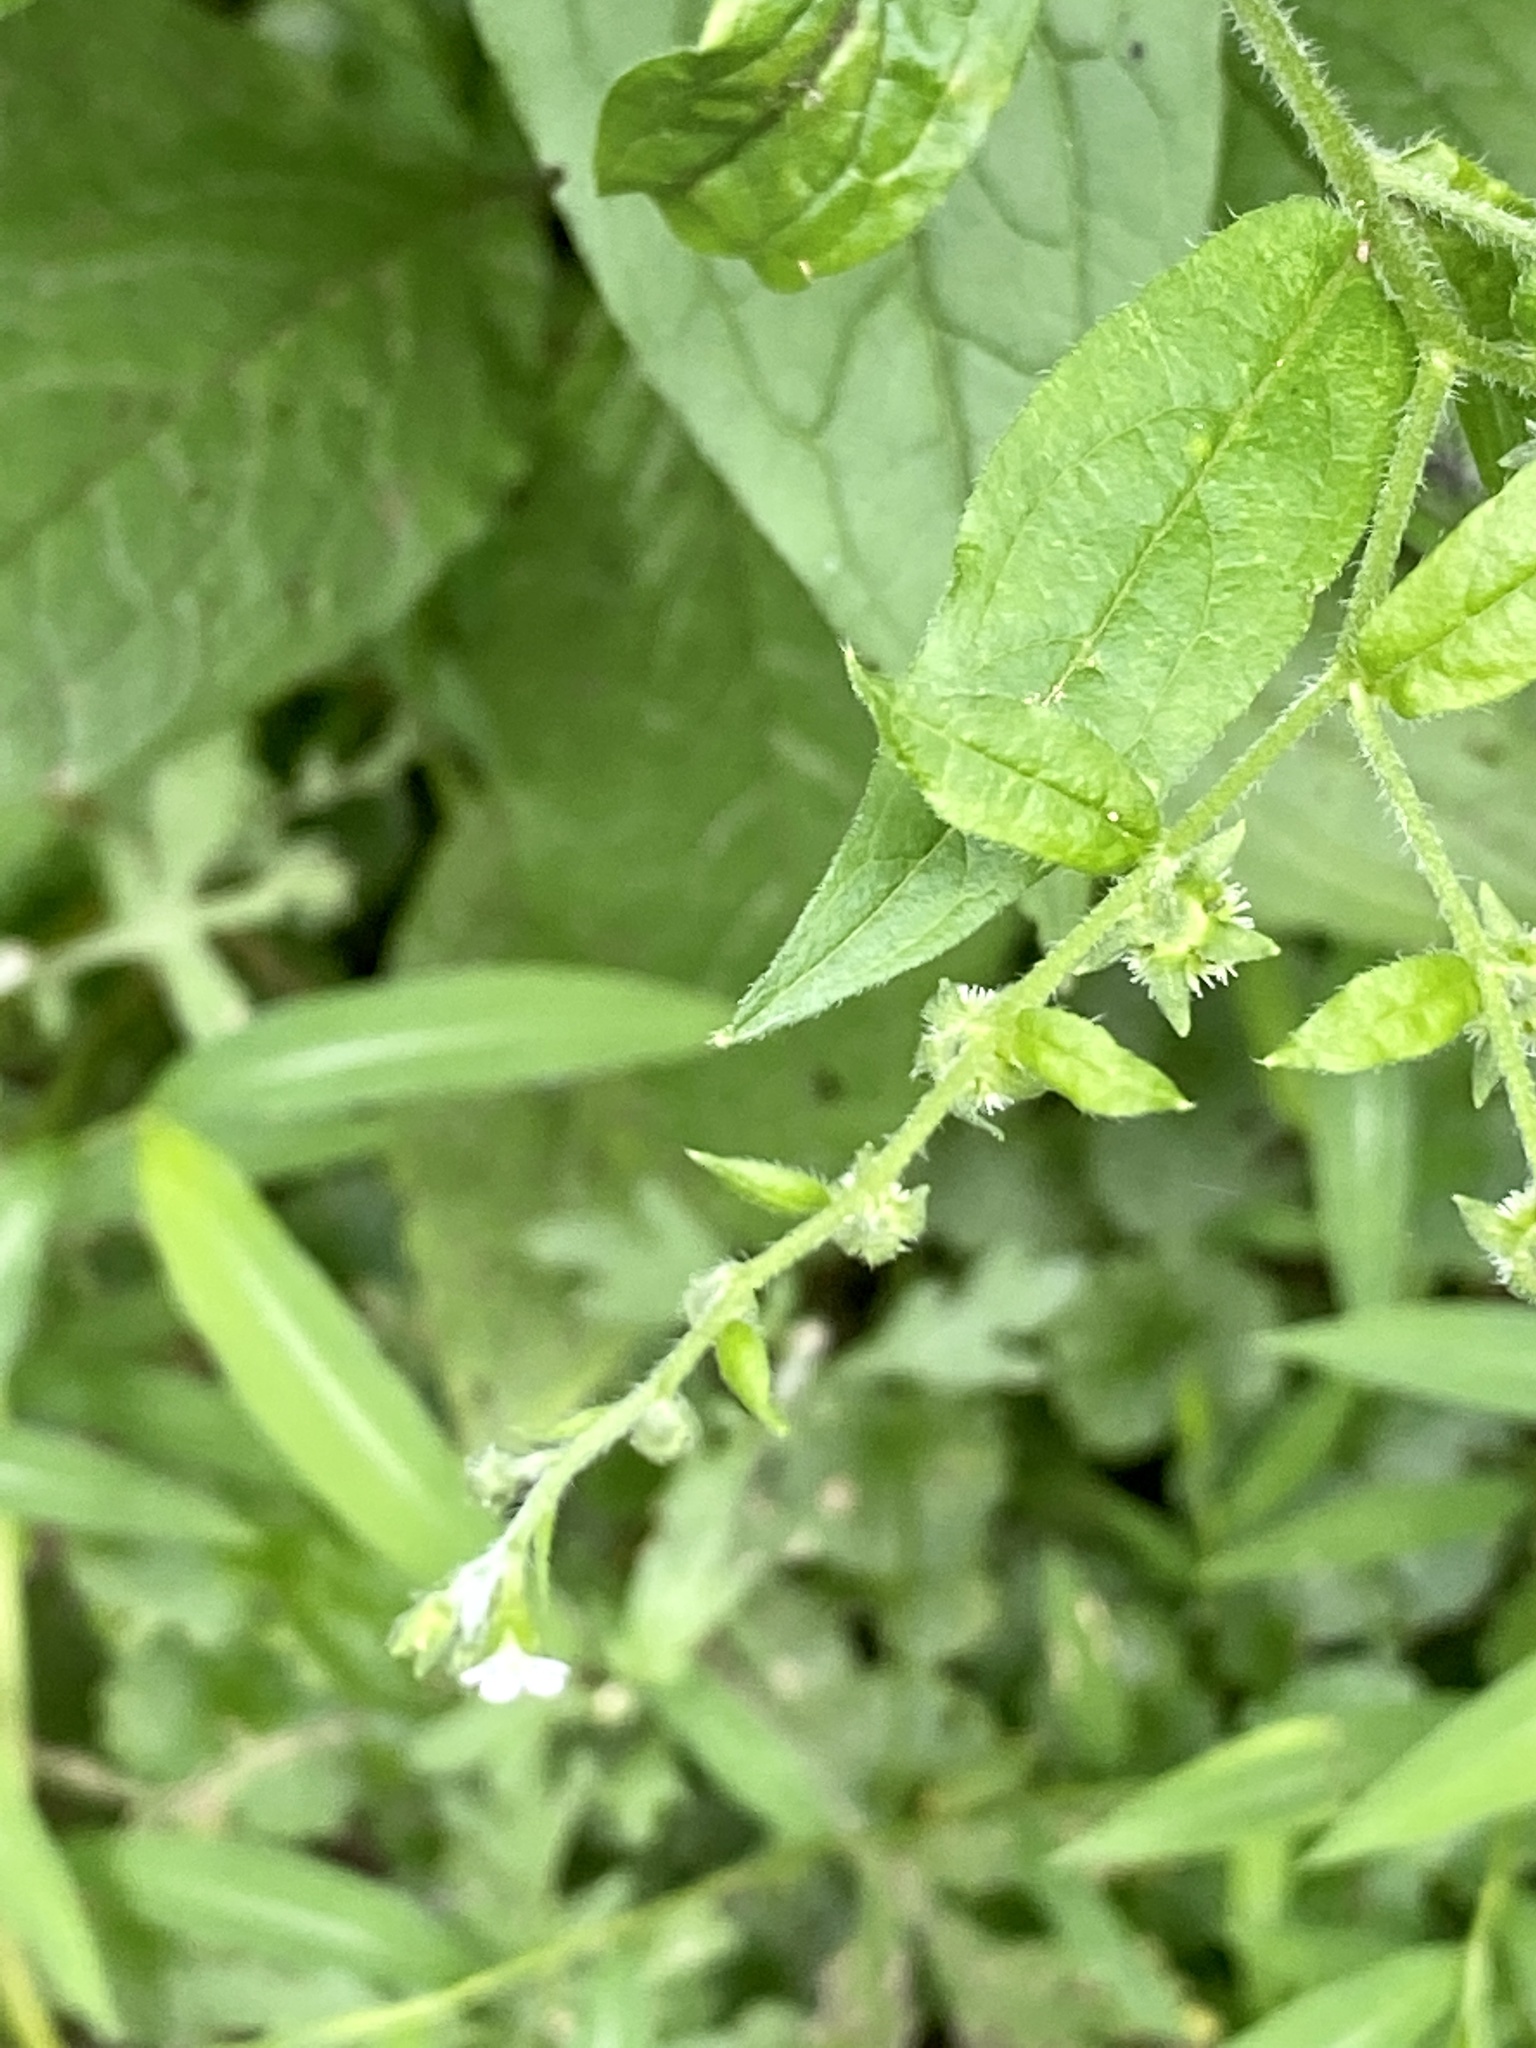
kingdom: Plantae
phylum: Tracheophyta
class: Magnoliopsida
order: Boraginales
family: Boraginaceae
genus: Hackelia
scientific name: Hackelia virginiana
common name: Beggar's-lice
